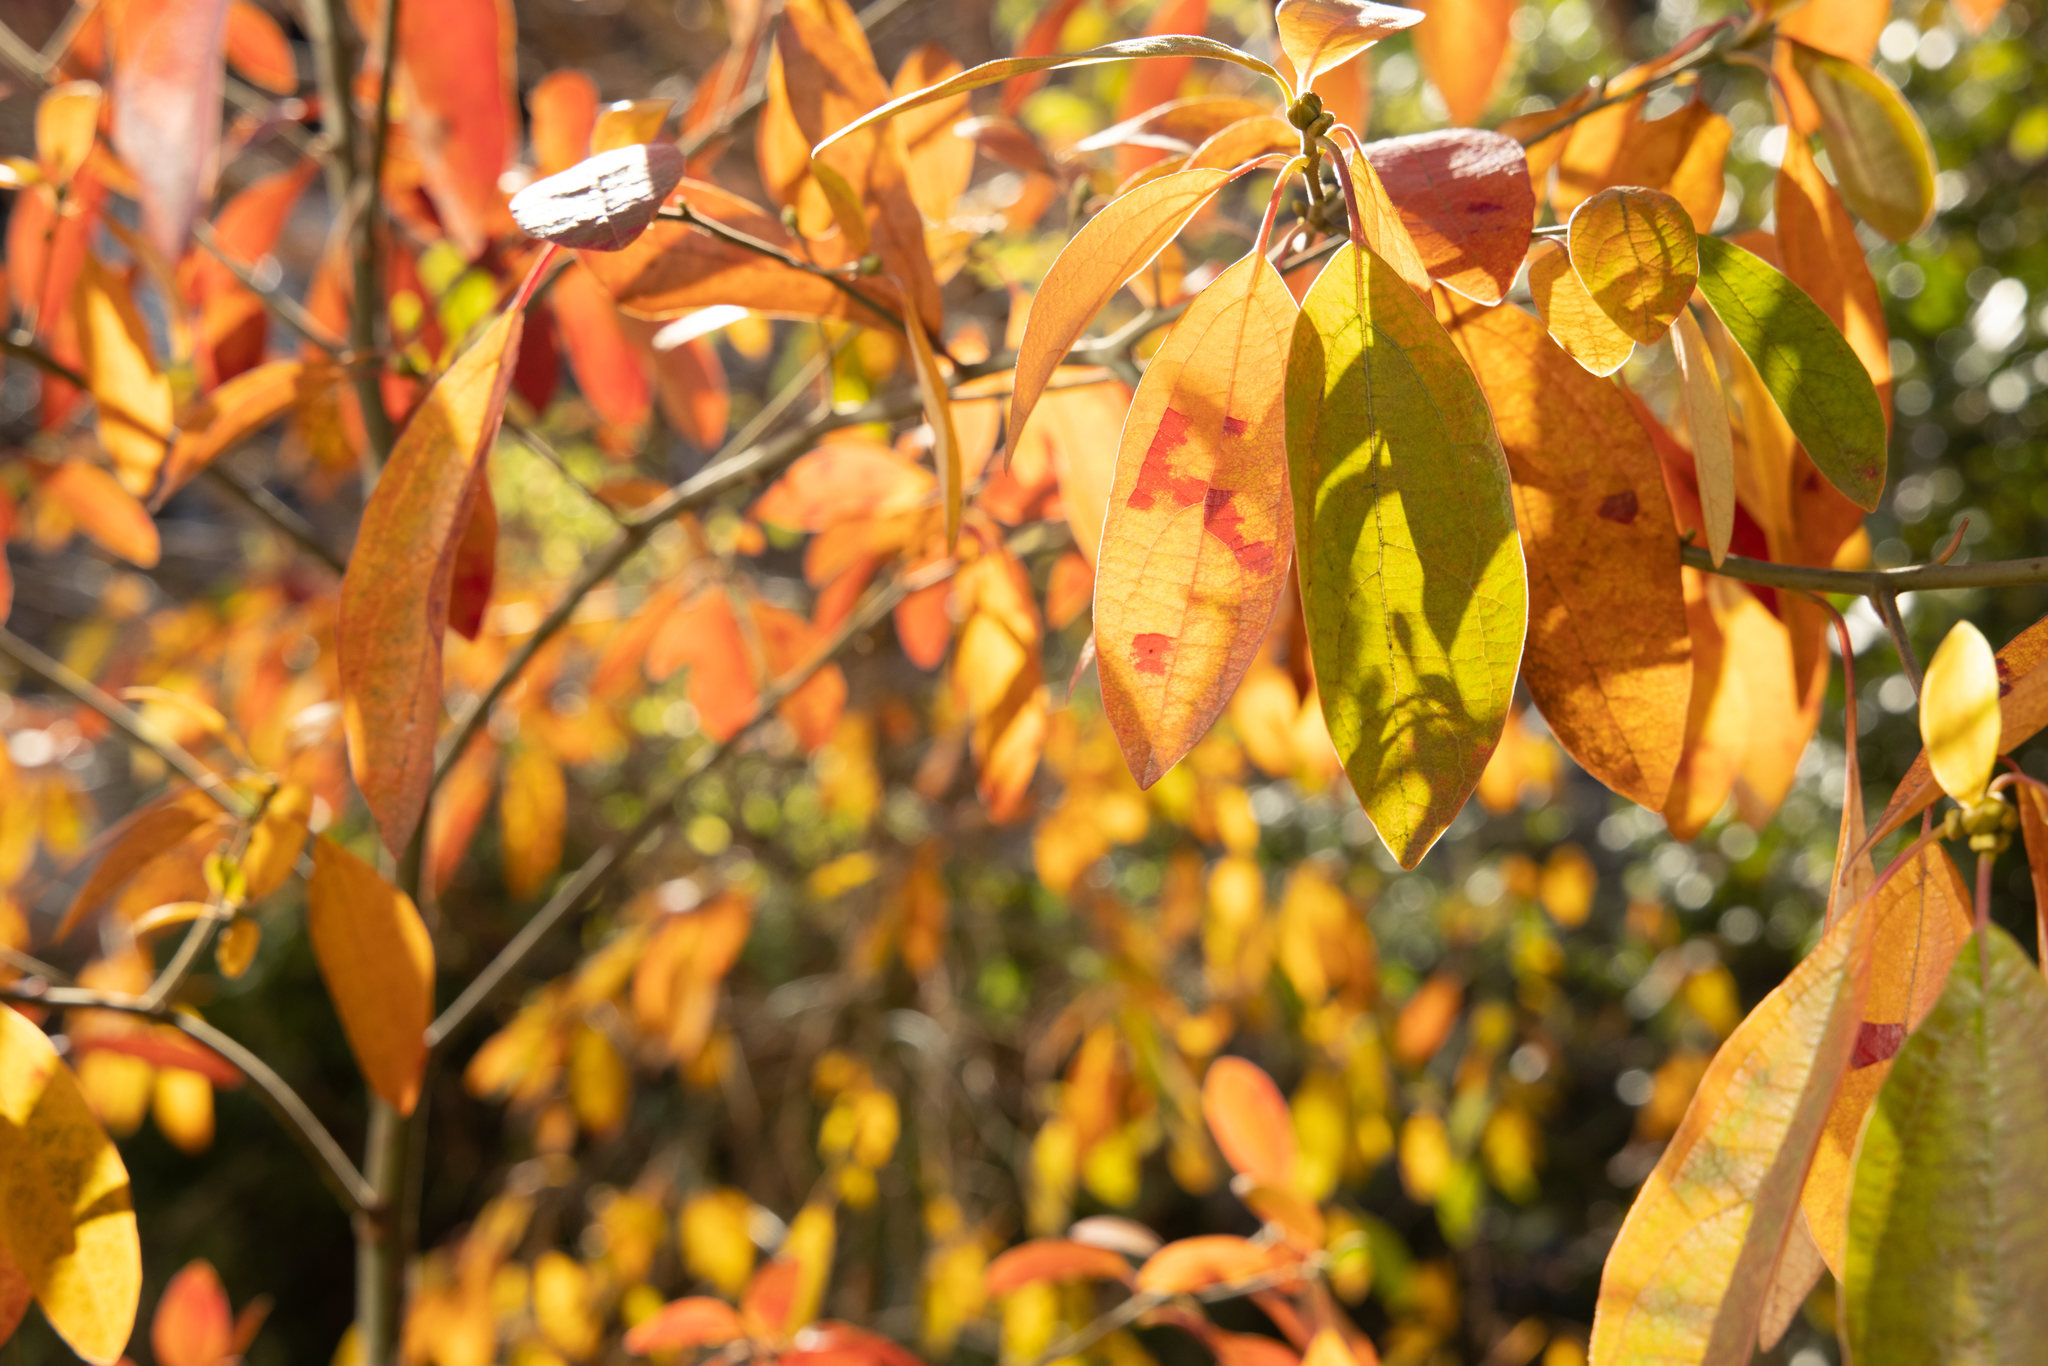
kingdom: Plantae
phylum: Tracheophyta
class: Magnoliopsida
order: Laurales
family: Lauraceae
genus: Sassafras
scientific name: Sassafras albidum
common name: Sassafras
